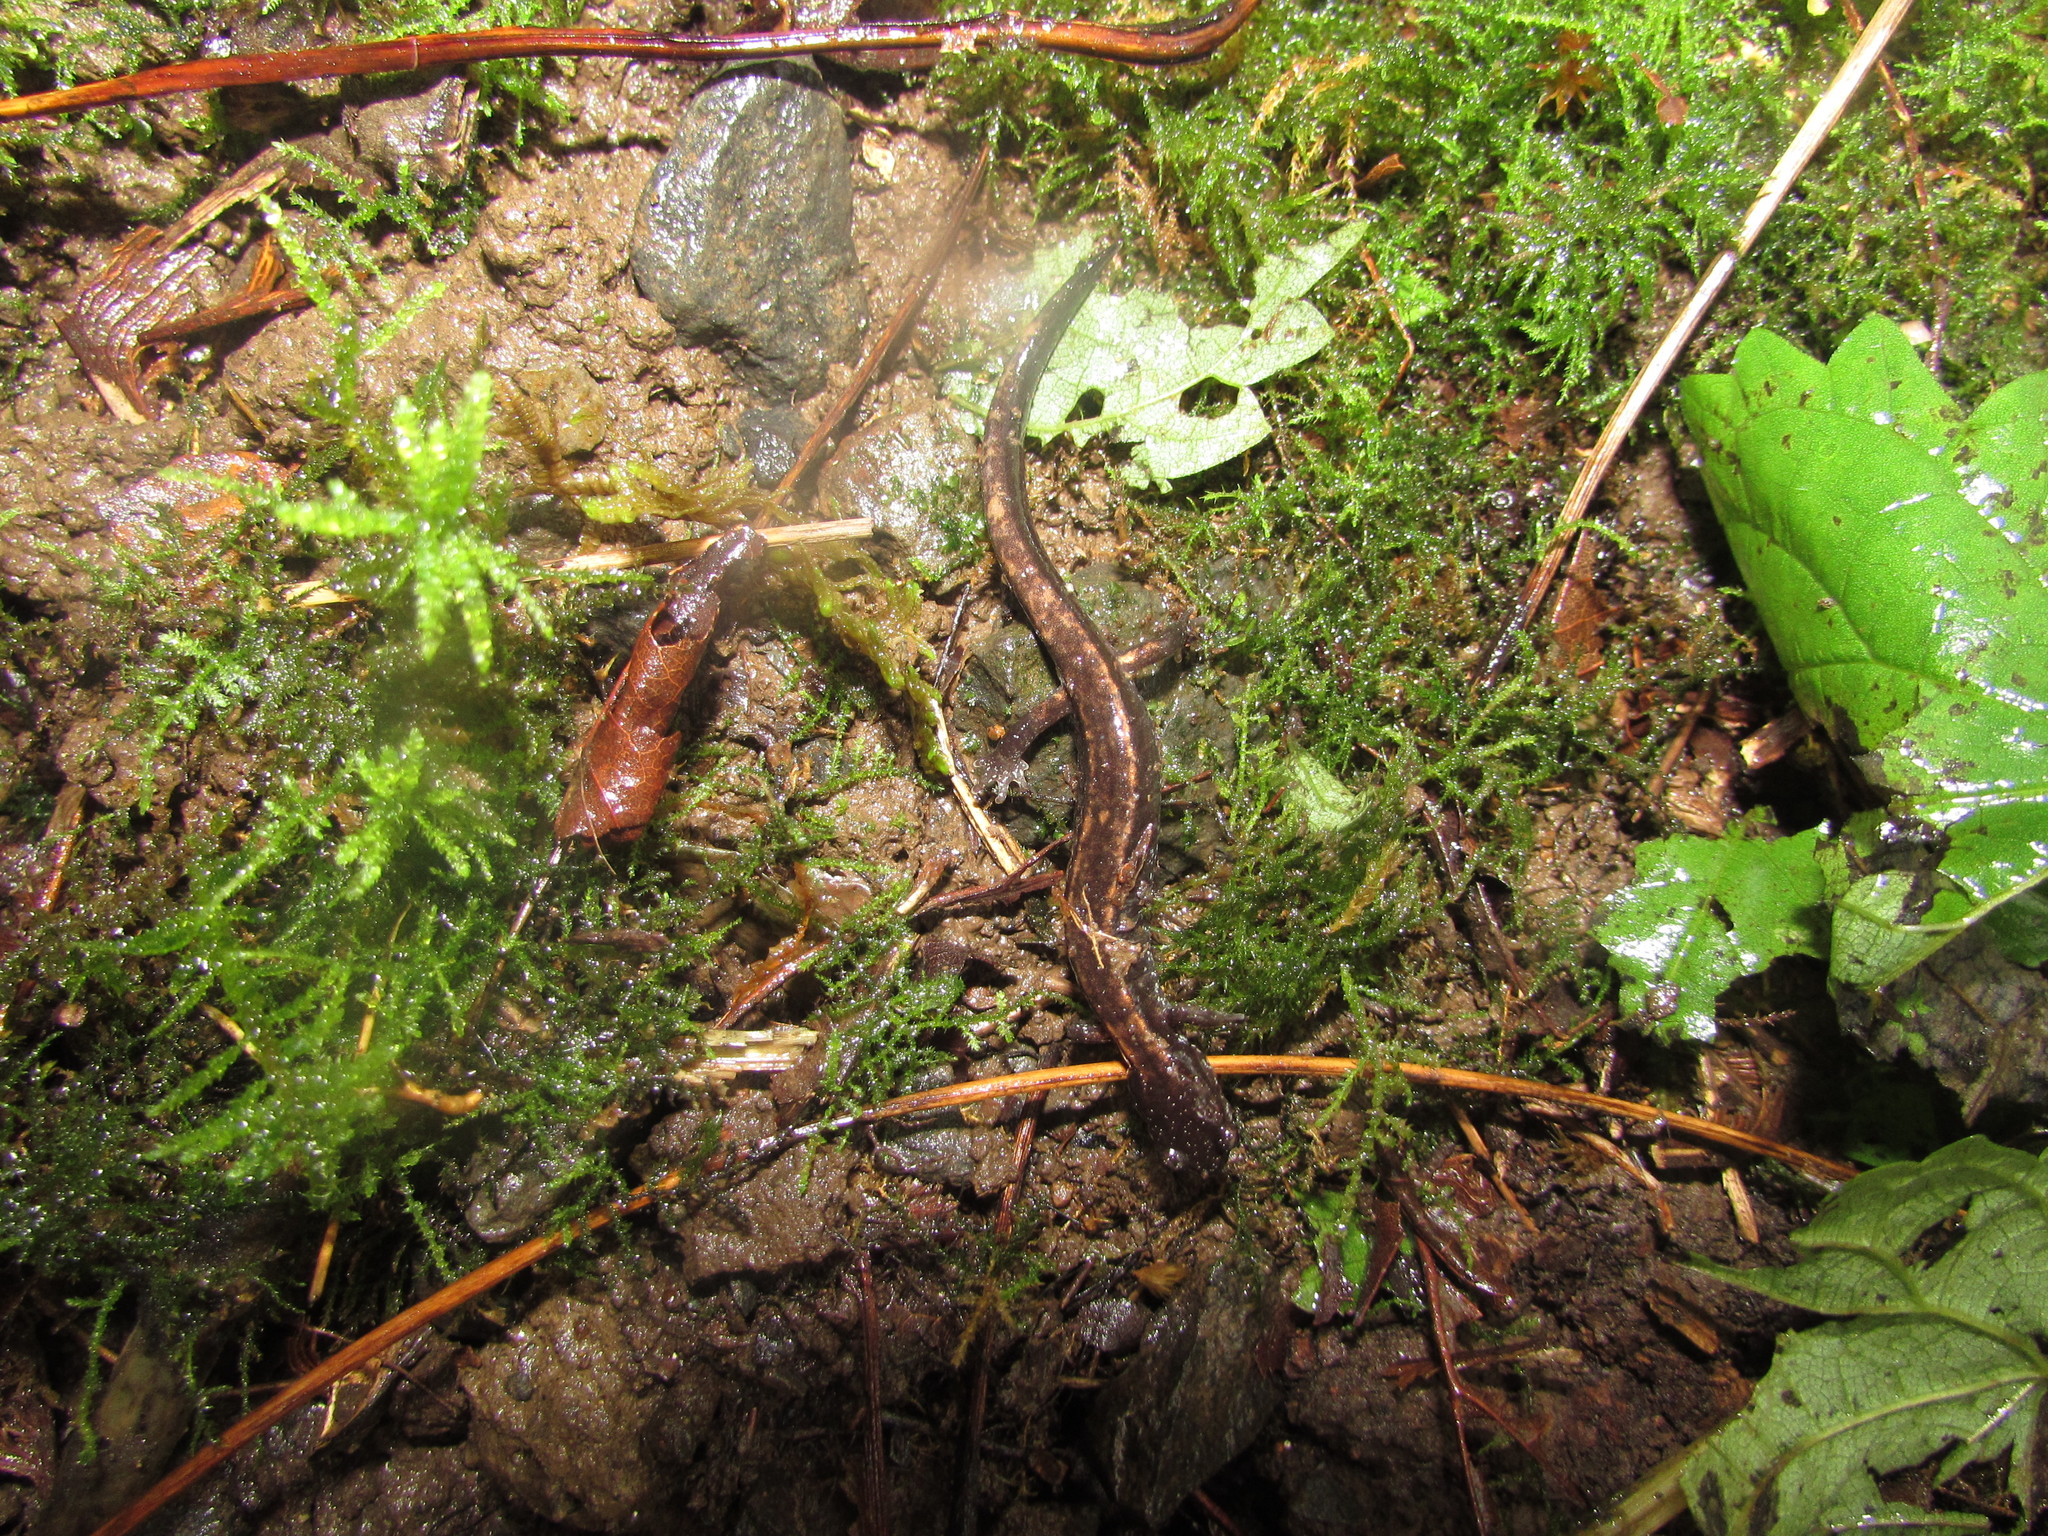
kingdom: Animalia
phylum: Chordata
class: Amphibia
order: Caudata
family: Plethodontidae
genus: Plethodon
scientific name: Plethodon vehiculum
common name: Western red-backed salamander
